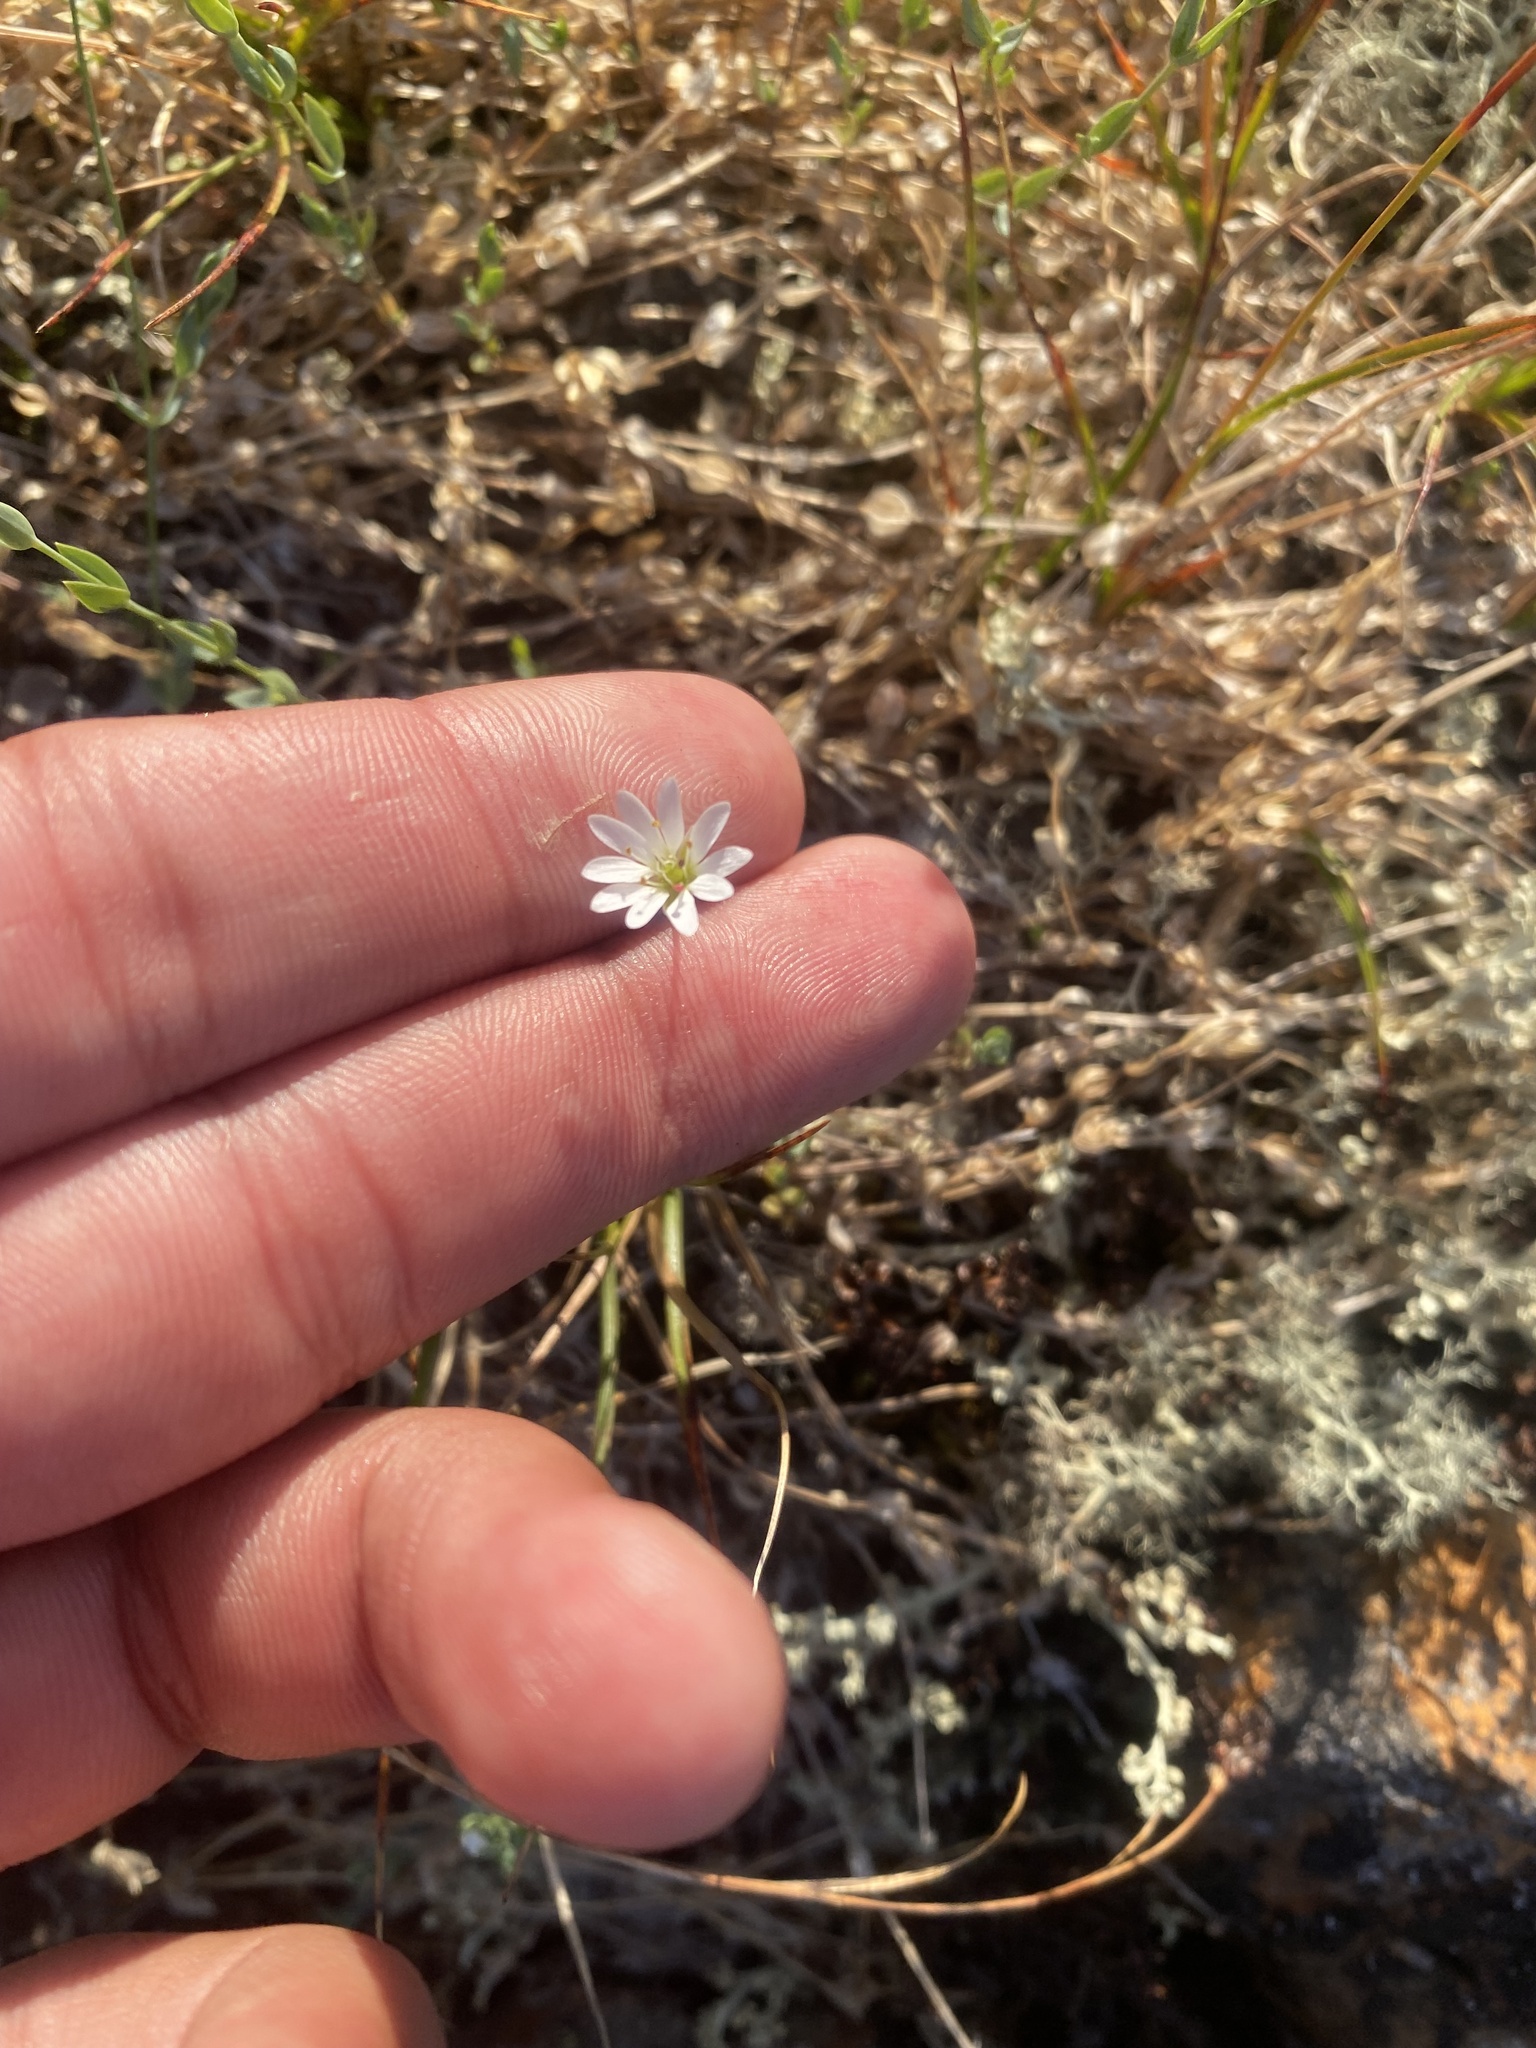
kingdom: Plantae
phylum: Tracheophyta
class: Magnoliopsida
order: Caryophyllales
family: Caryophyllaceae
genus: Stellaria
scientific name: Stellaria longipes
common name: Goldie's starwort
